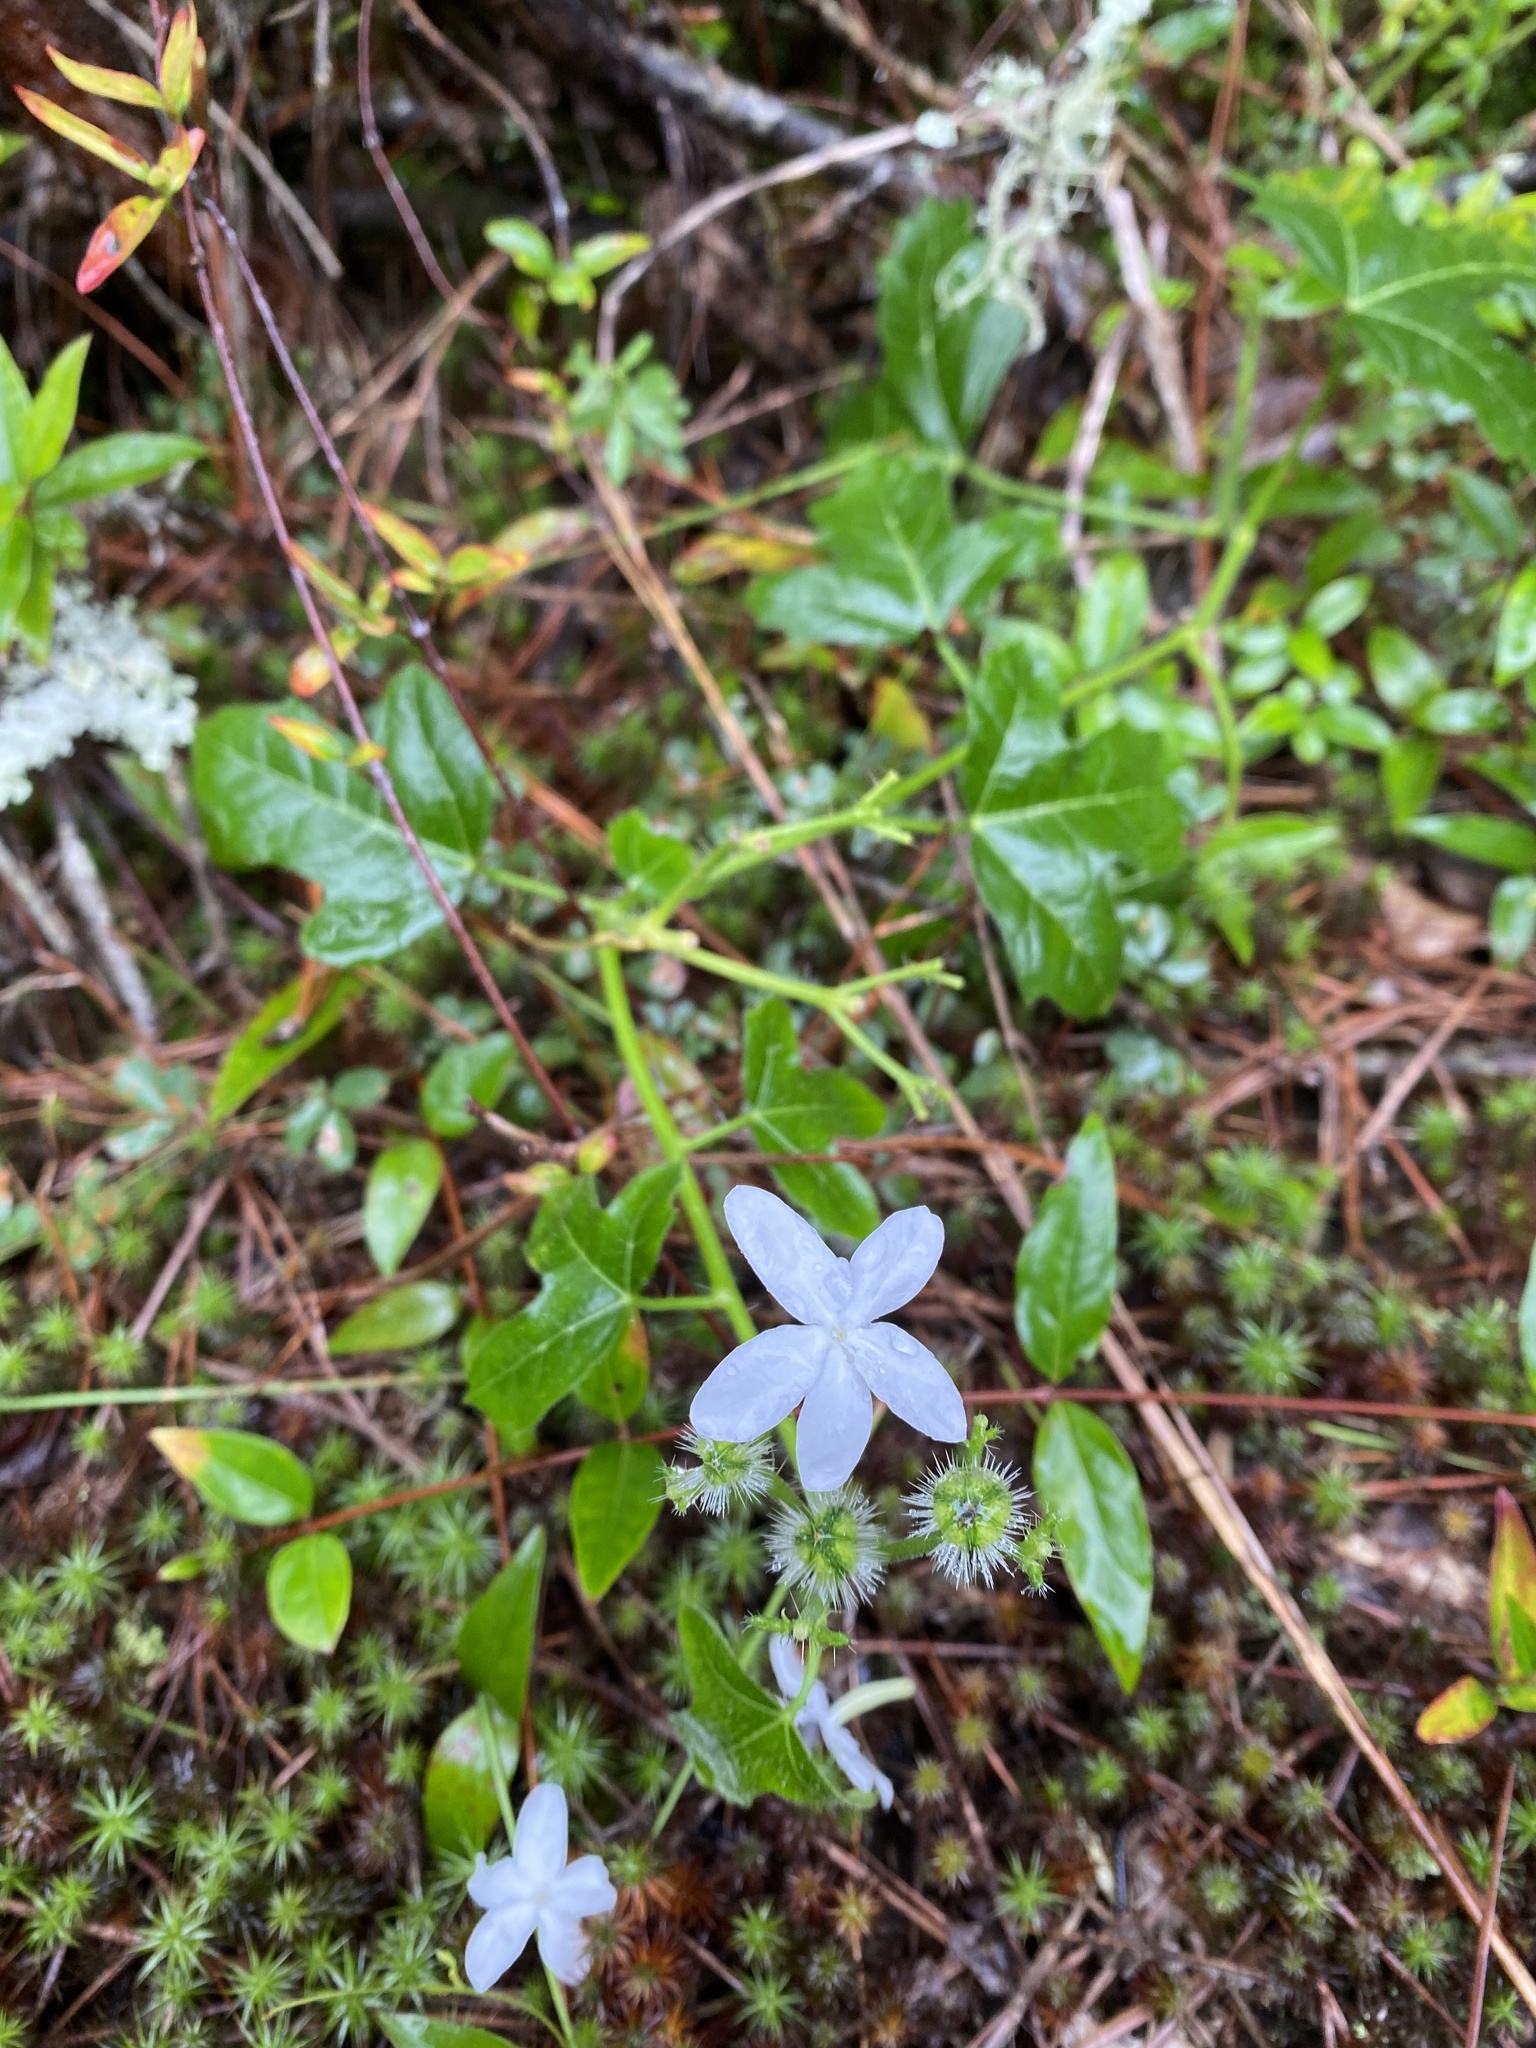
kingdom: Plantae
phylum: Tracheophyta
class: Magnoliopsida
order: Malpighiales
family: Euphorbiaceae
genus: Cnidoscolus
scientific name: Cnidoscolus stimulosus
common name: Bull-nettle
